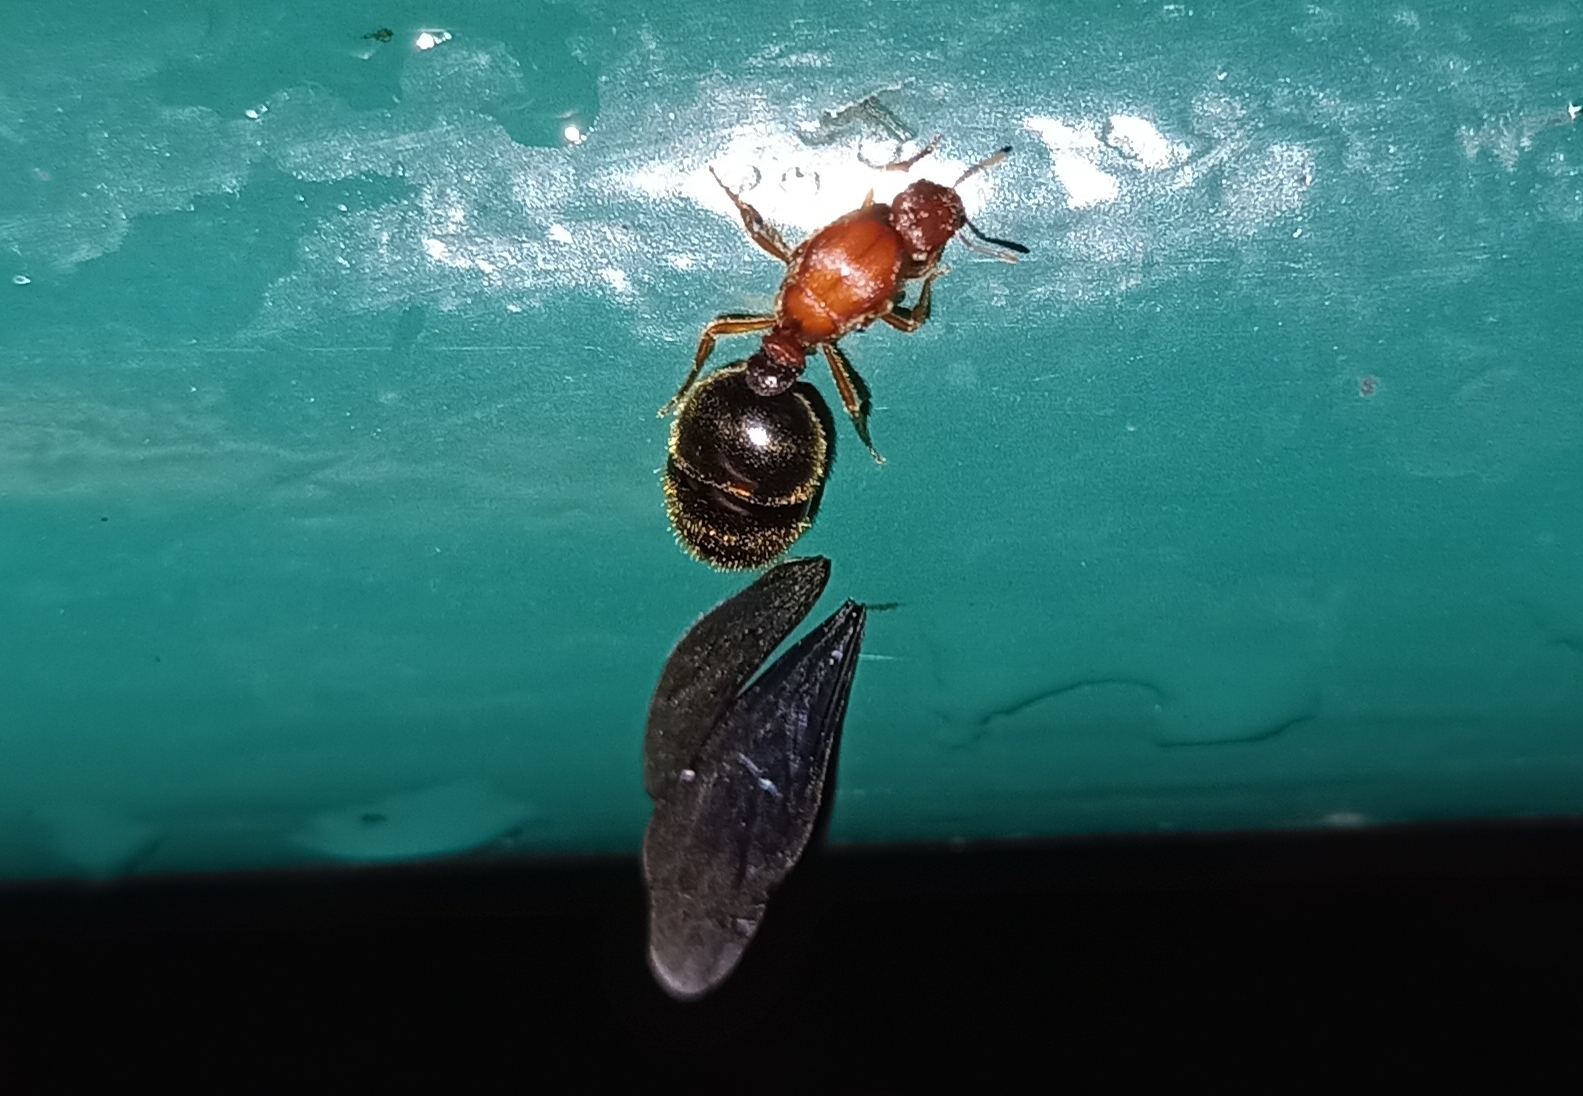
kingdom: Animalia
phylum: Arthropoda
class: Insecta
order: Hymenoptera
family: Formicidae
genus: Carebarella
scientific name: Carebarella bicolor
